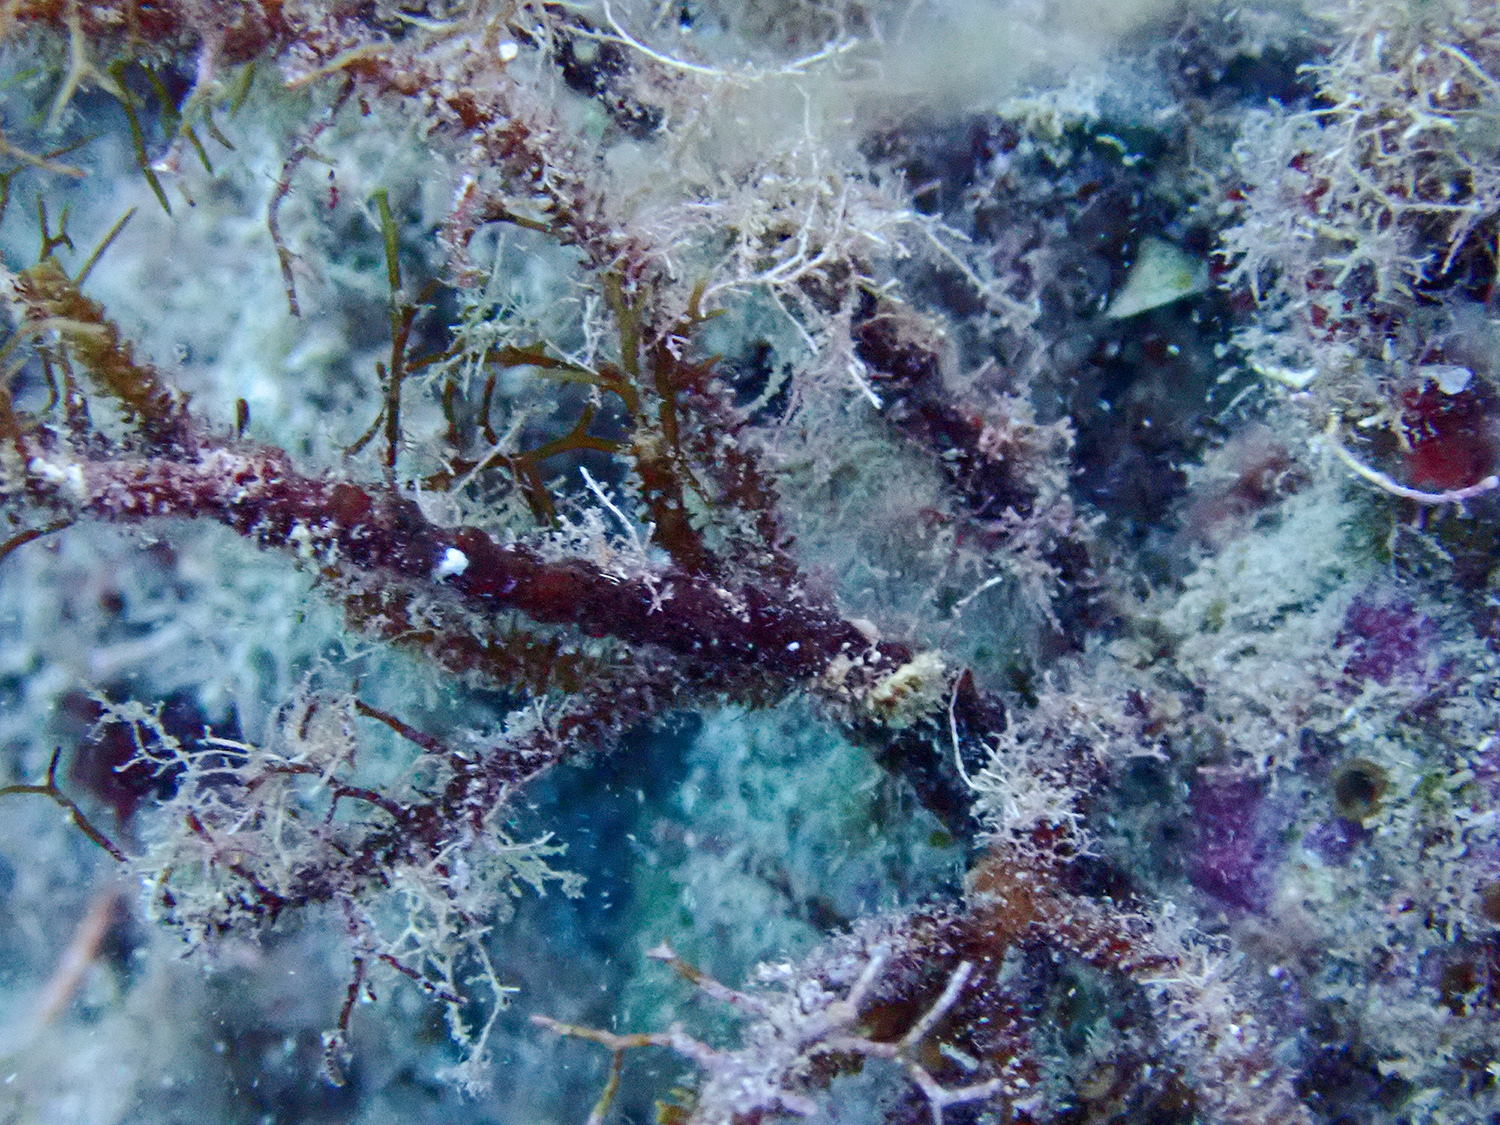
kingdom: Chromista
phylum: Ochrophyta
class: Phaeophyceae
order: Fucales
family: Sargassaceae
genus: Cystoseira
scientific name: Cystoseira foeniculacea
